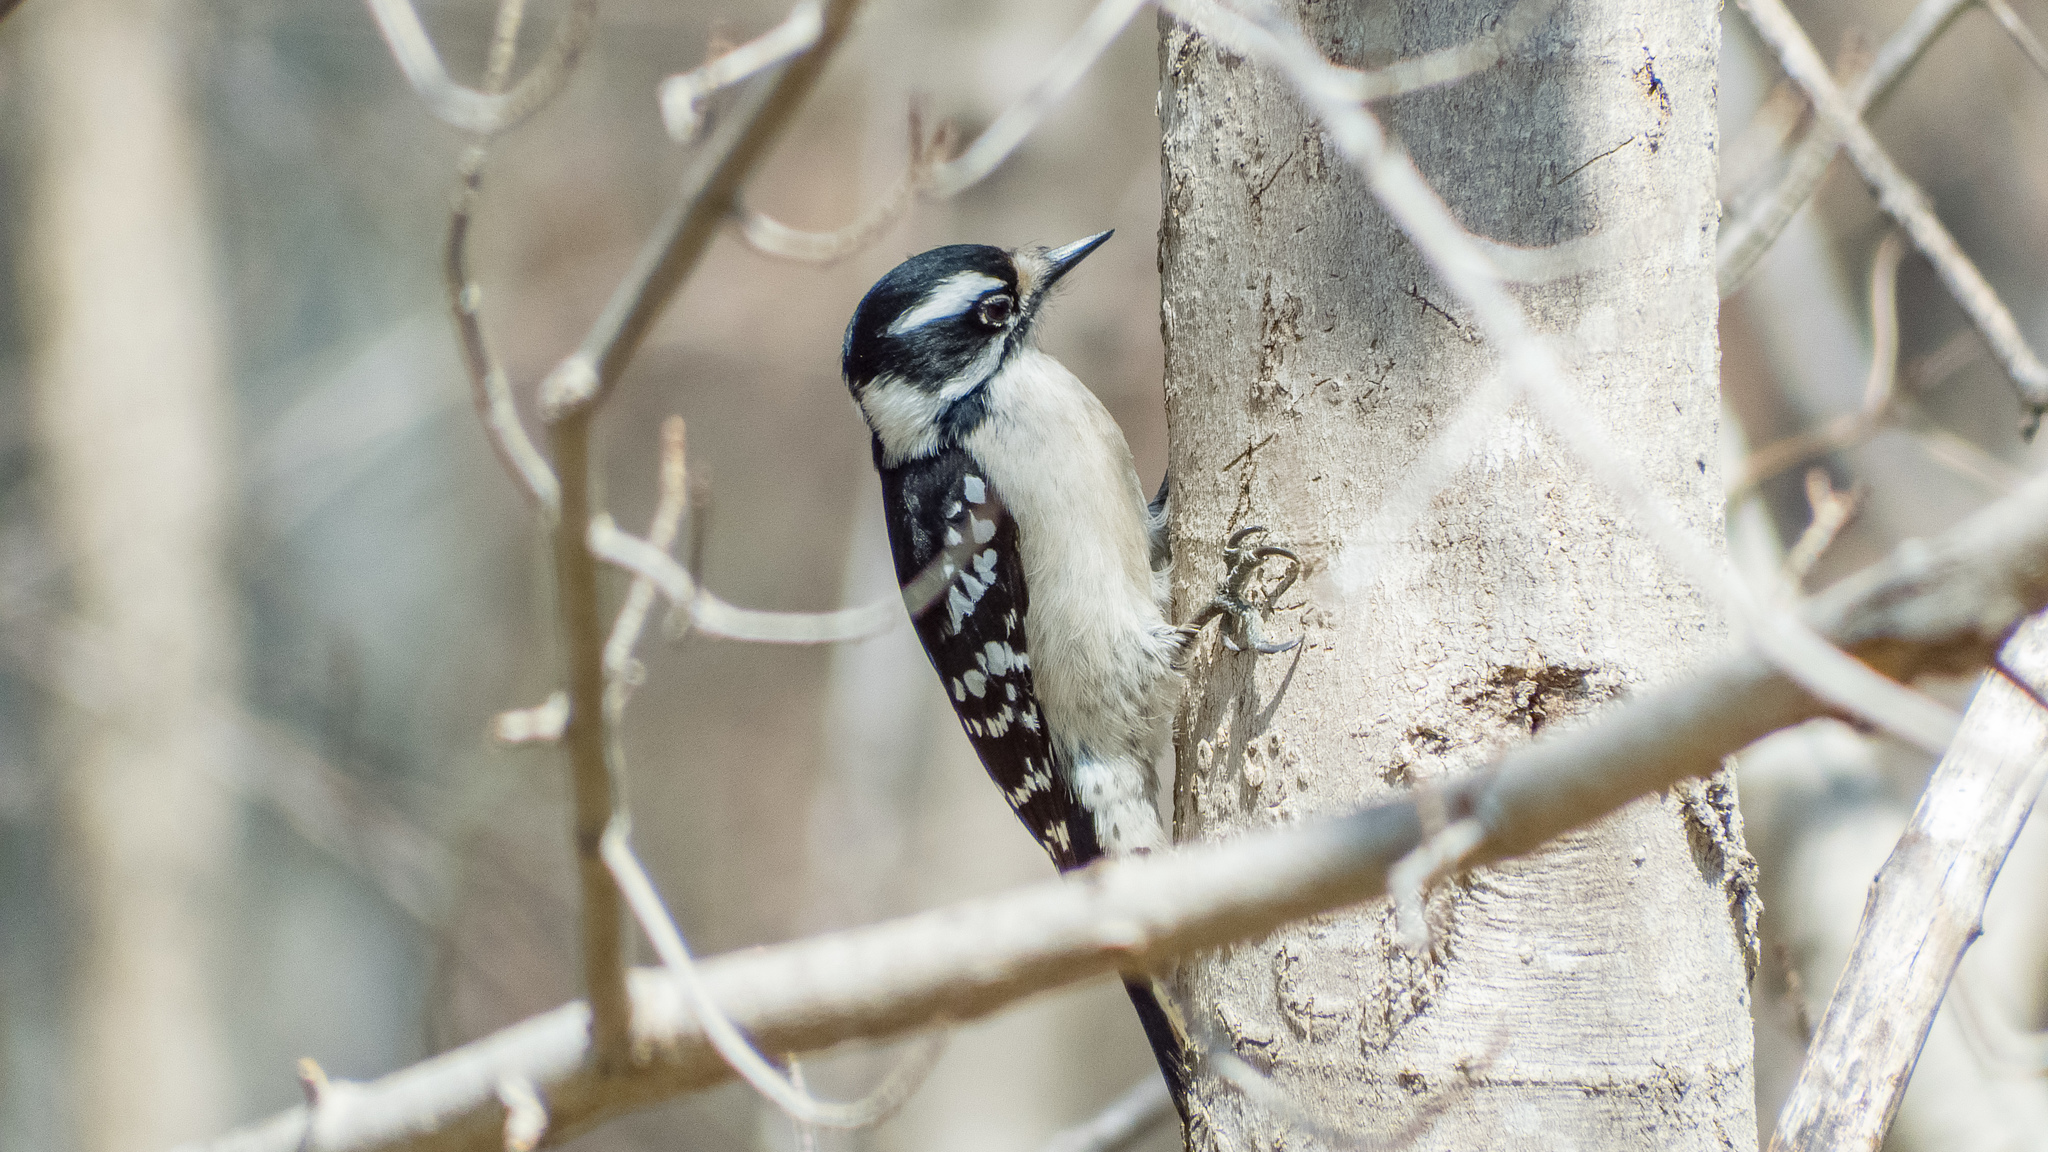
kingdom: Animalia
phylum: Chordata
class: Aves
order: Piciformes
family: Picidae
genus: Dryobates
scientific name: Dryobates pubescens
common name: Downy woodpecker
